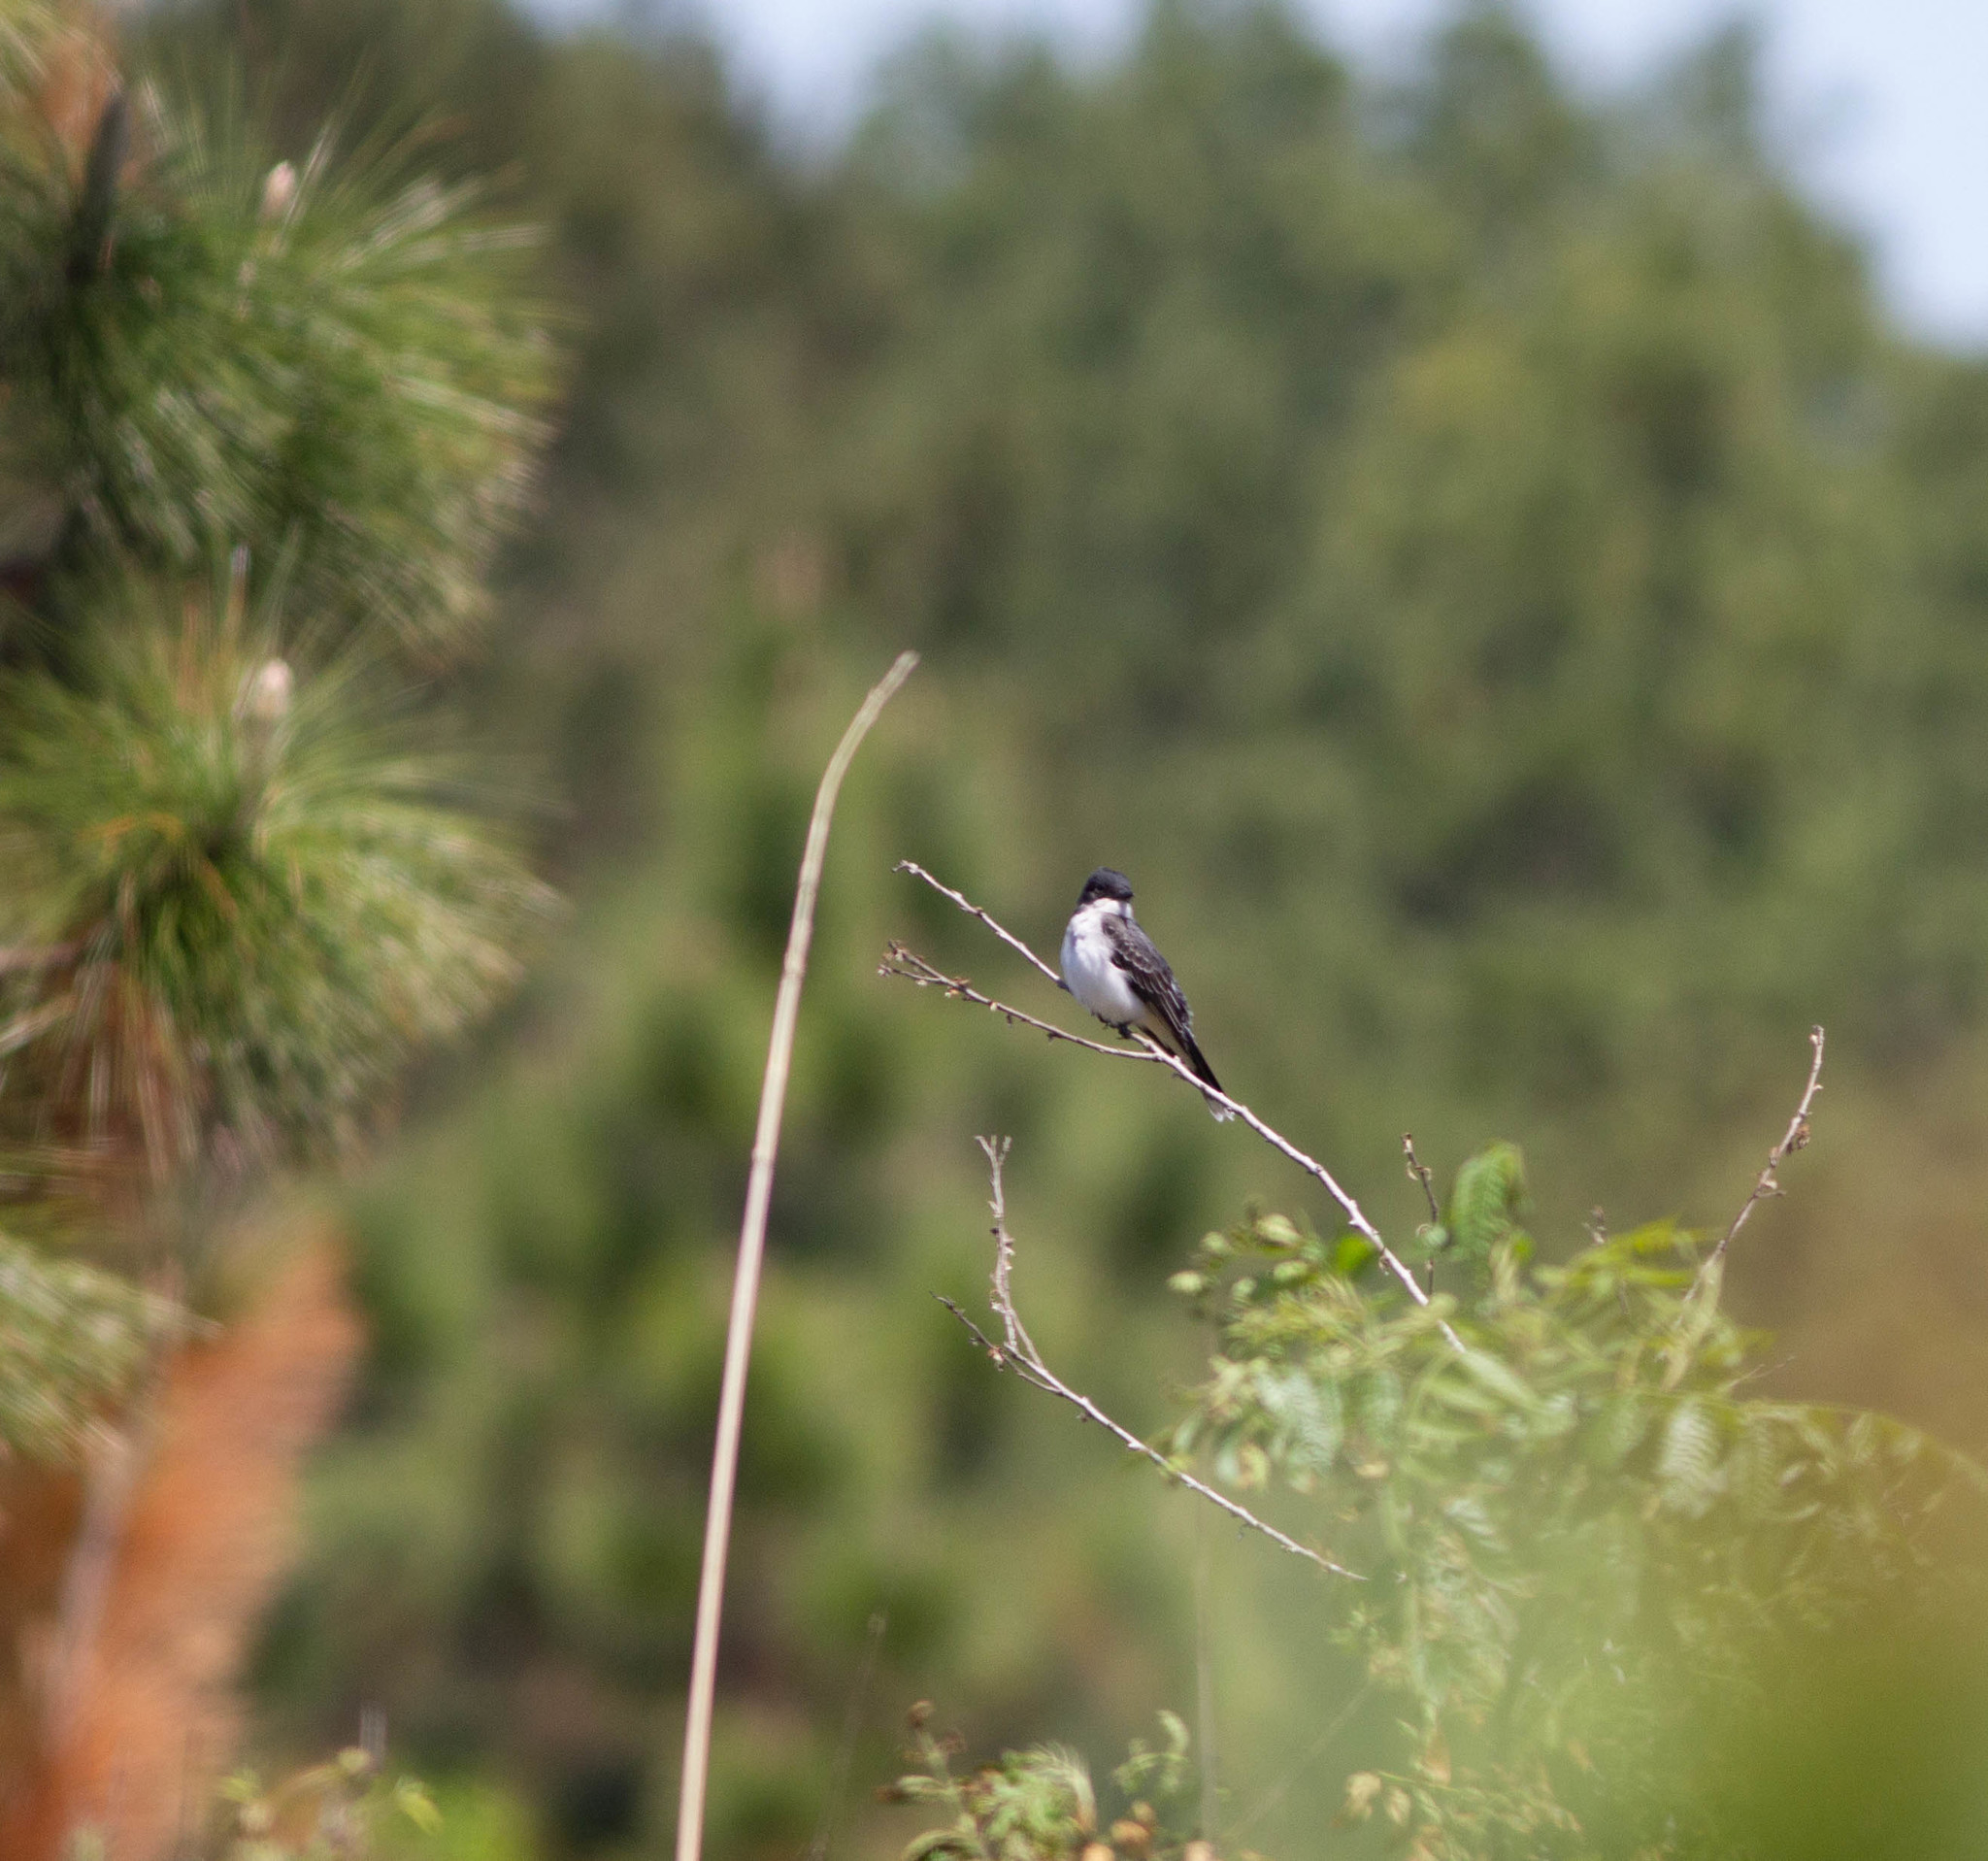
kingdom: Animalia
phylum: Chordata
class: Aves
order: Passeriformes
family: Tyrannidae
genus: Tyrannus
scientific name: Tyrannus tyrannus
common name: Eastern kingbird
